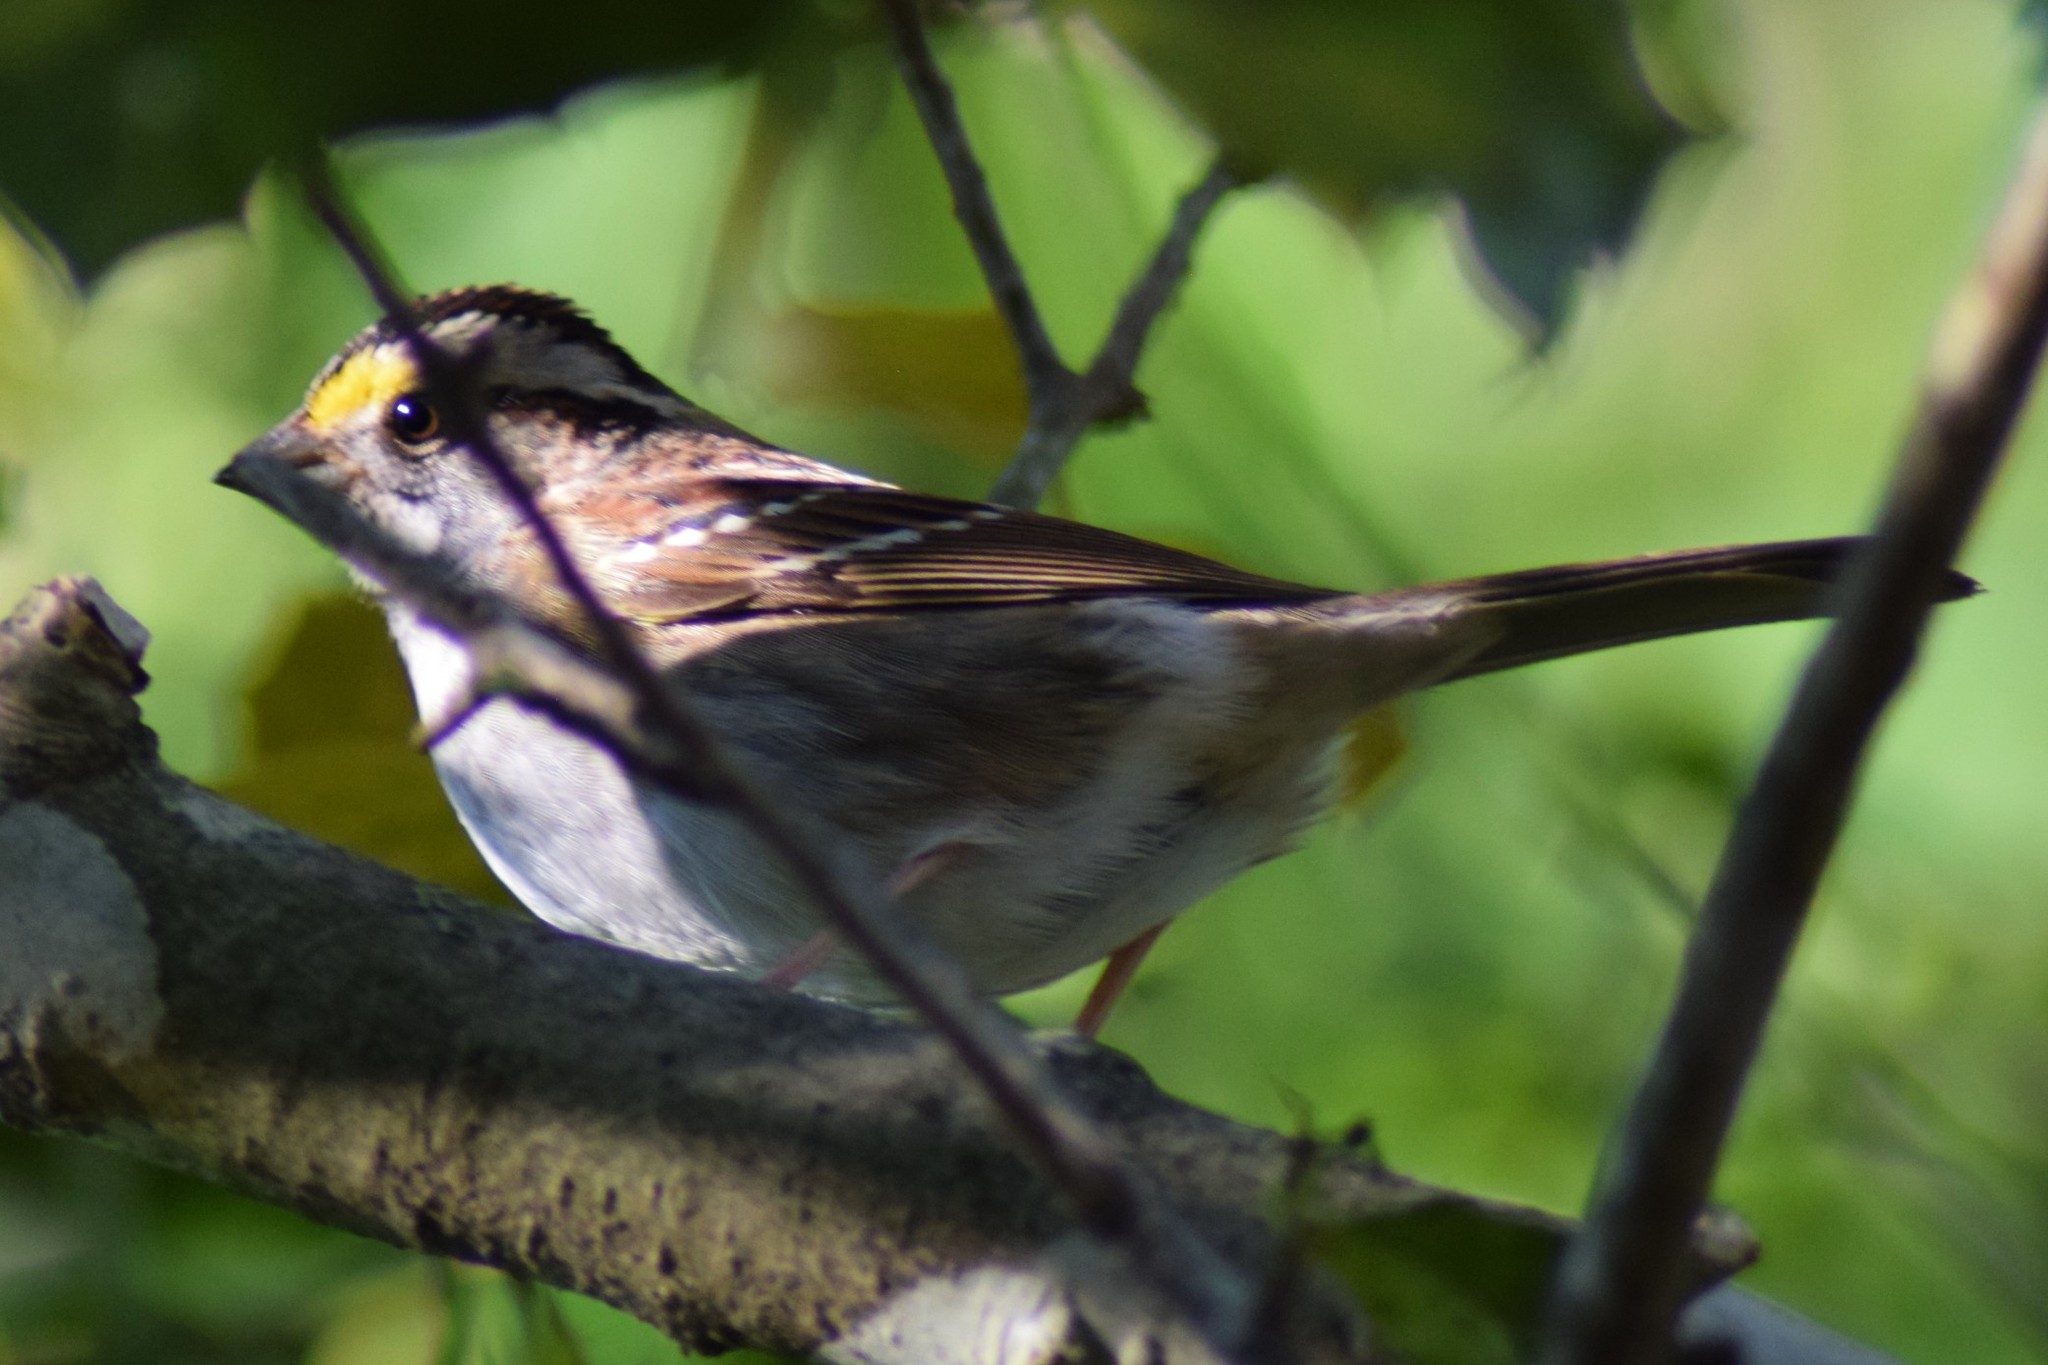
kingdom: Animalia
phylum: Chordata
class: Aves
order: Passeriformes
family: Passerellidae
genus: Zonotrichia
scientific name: Zonotrichia albicollis
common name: White-throated sparrow
